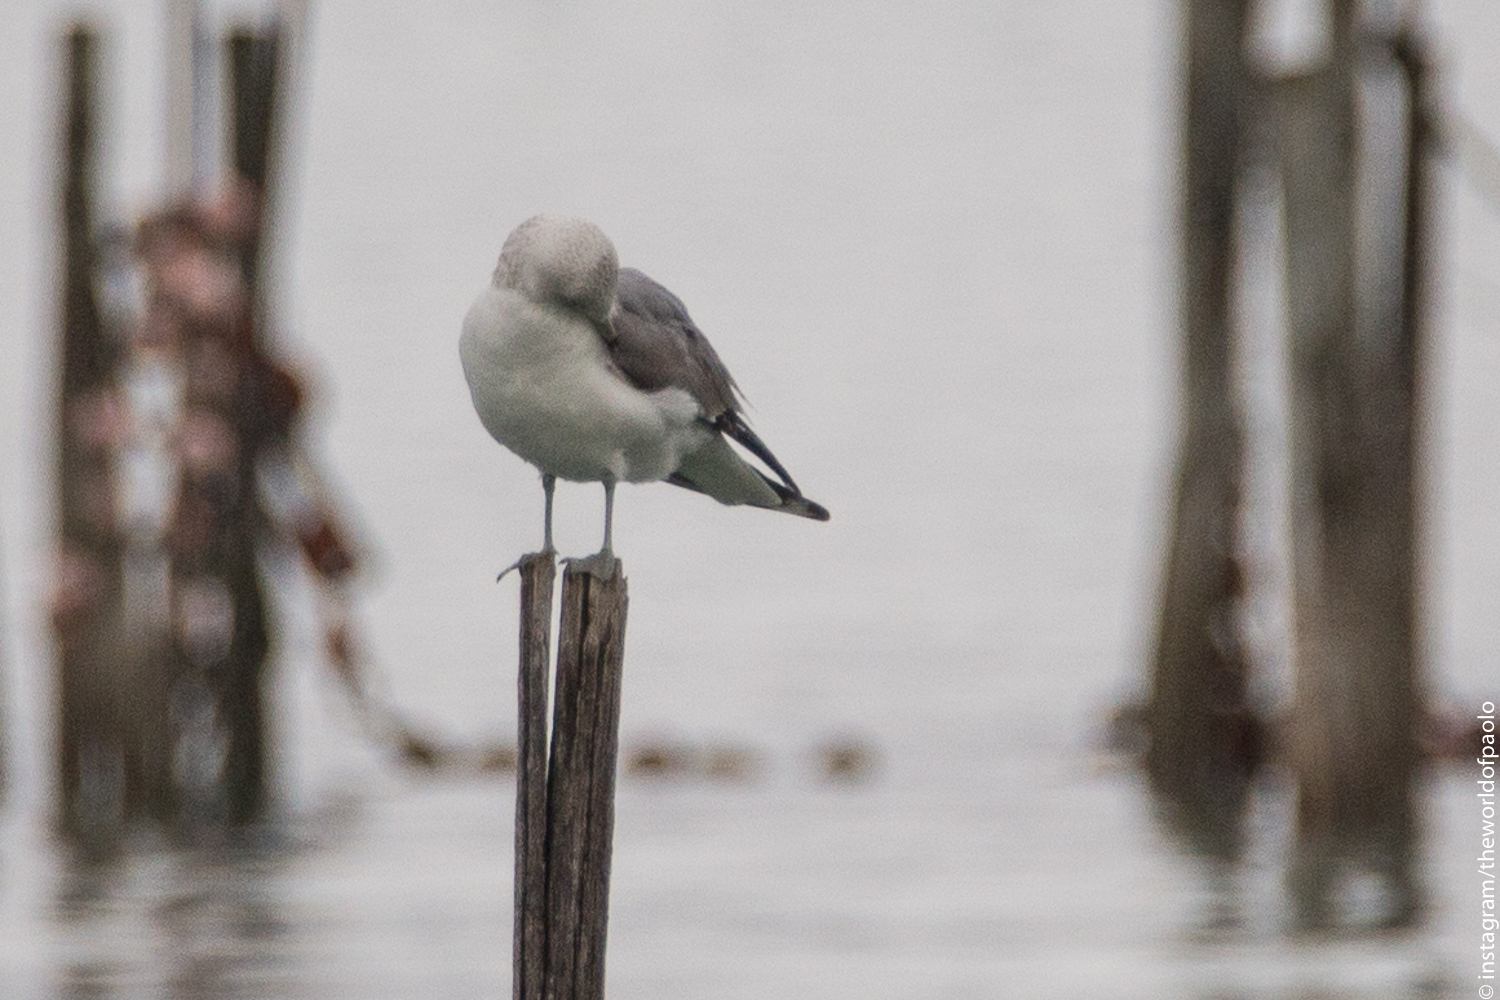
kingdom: Animalia
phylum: Chordata
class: Aves
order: Charadriiformes
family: Laridae
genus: Larus
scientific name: Larus canus
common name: Mew gull
